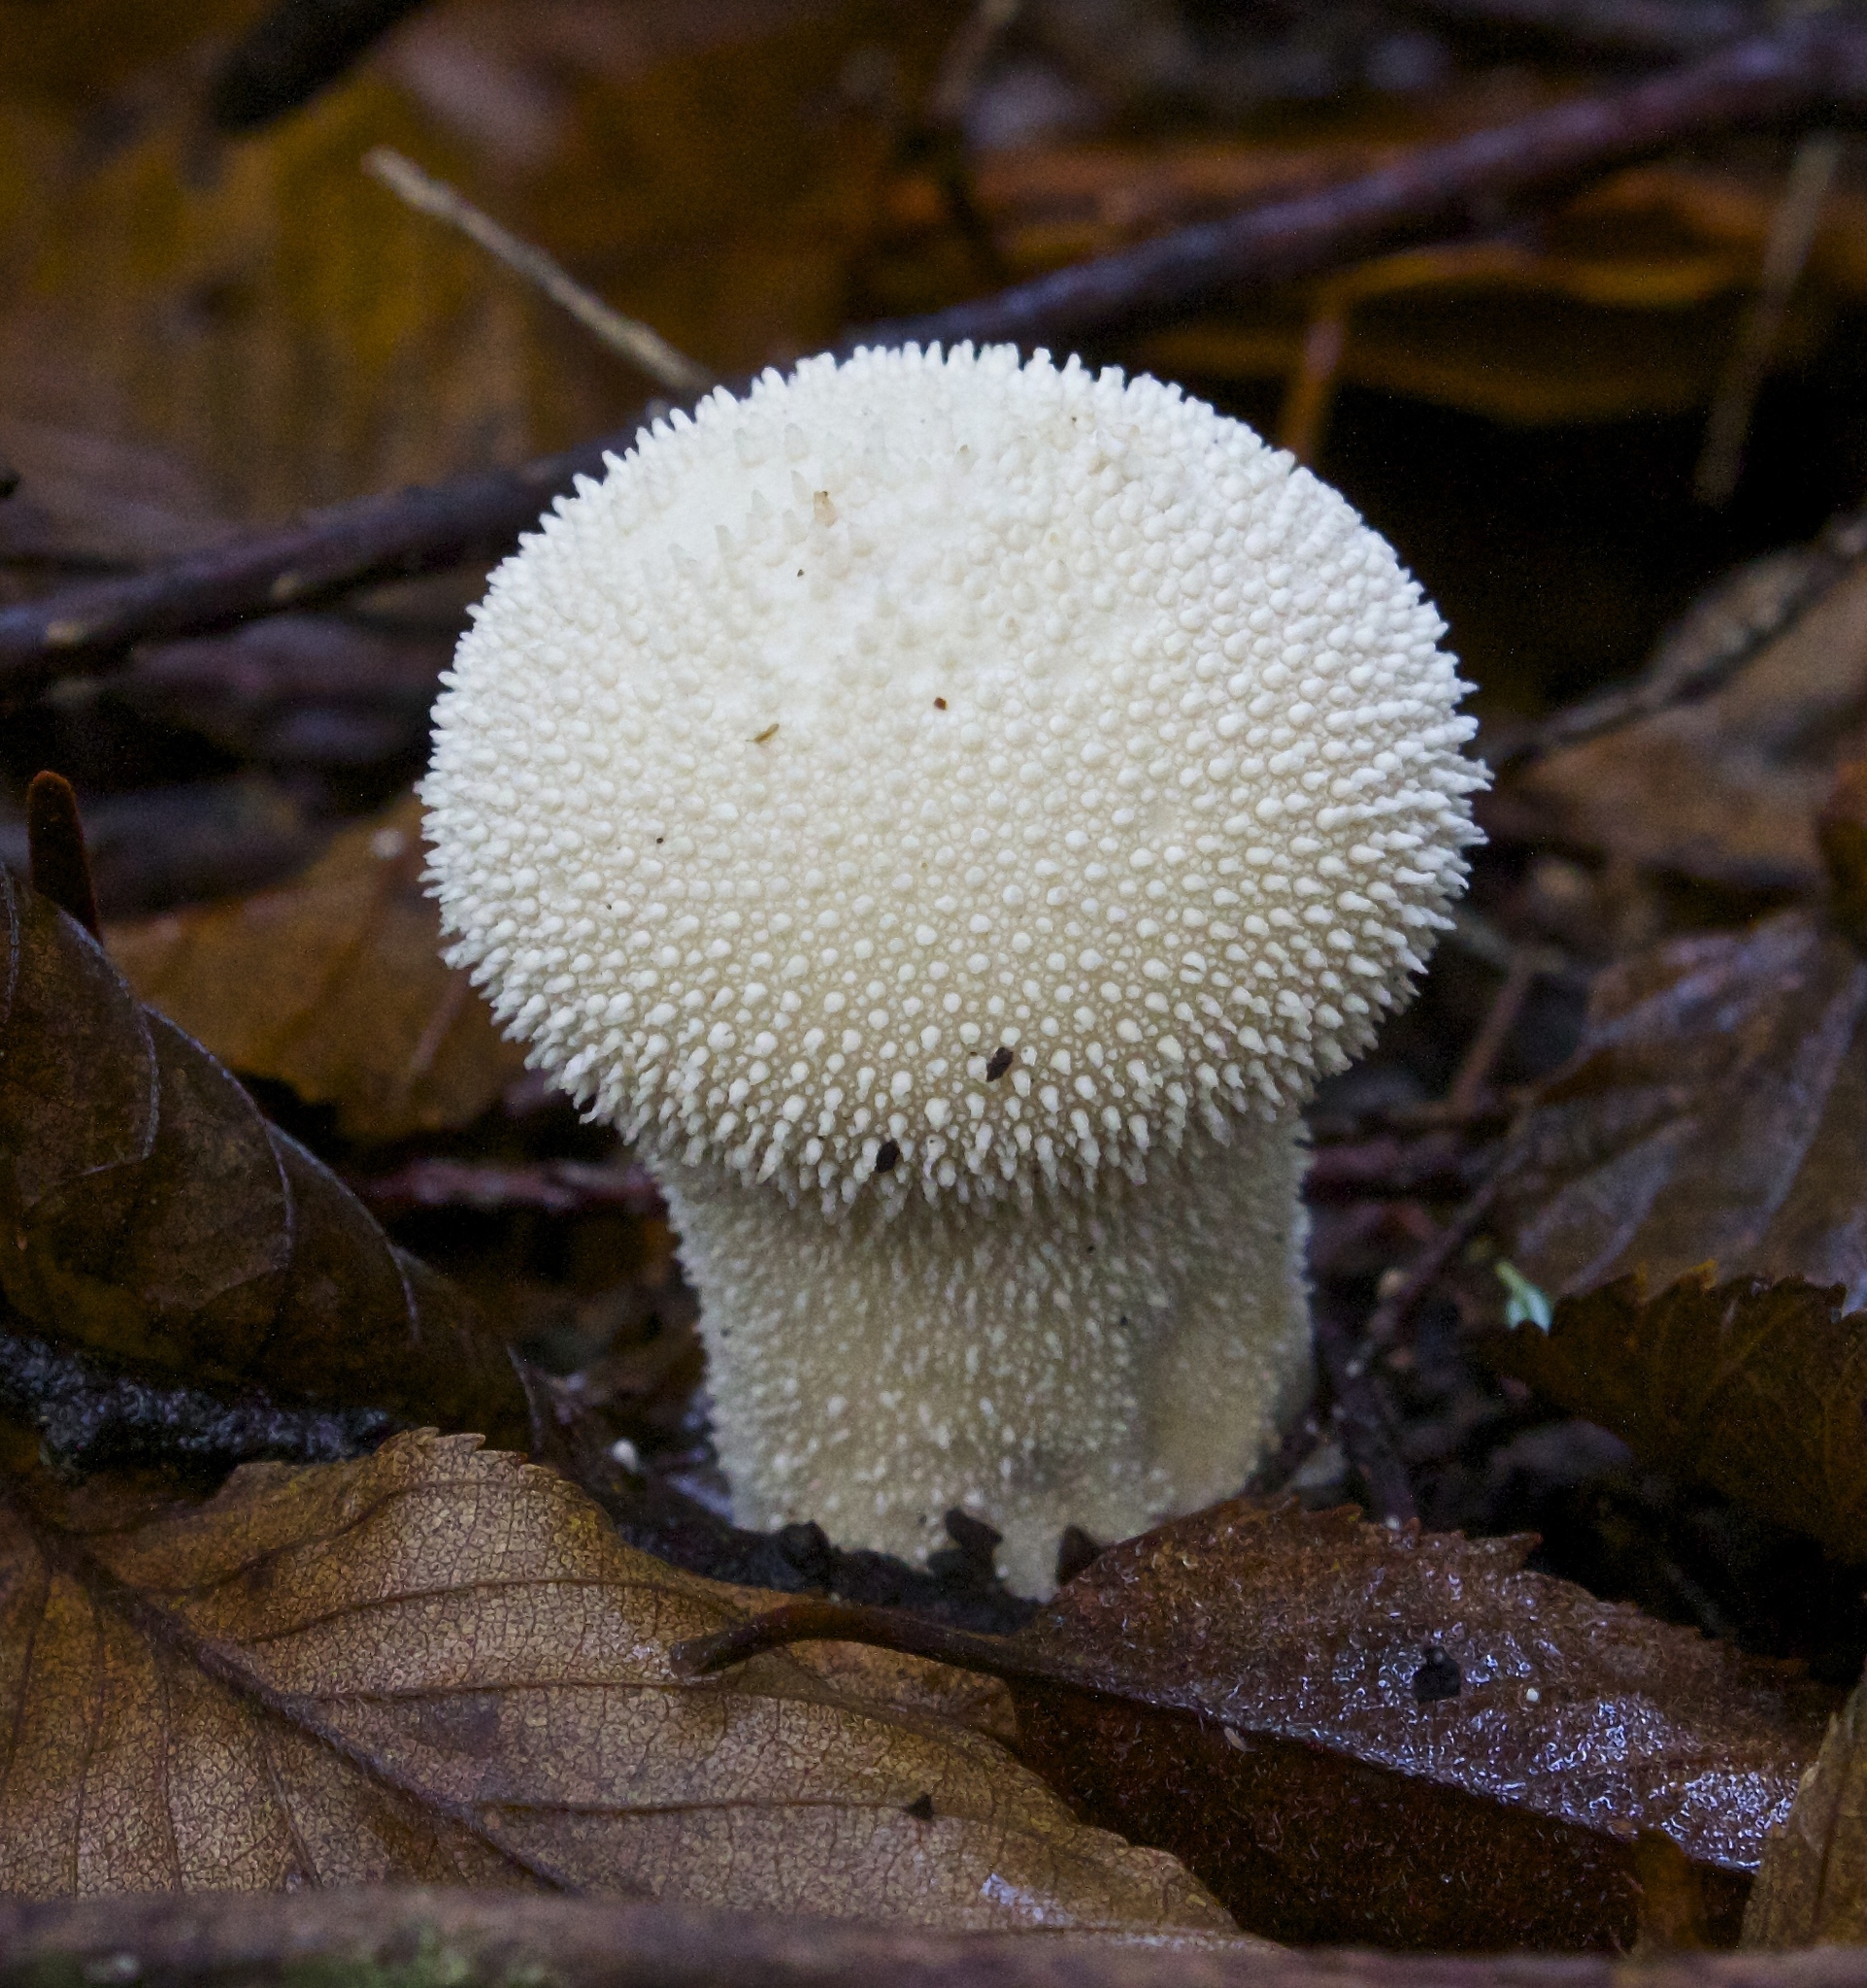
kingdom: Fungi
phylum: Basidiomycota
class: Agaricomycetes
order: Agaricales
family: Lycoperdaceae
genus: Lycoperdon
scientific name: Lycoperdon perlatum
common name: Common puffball
